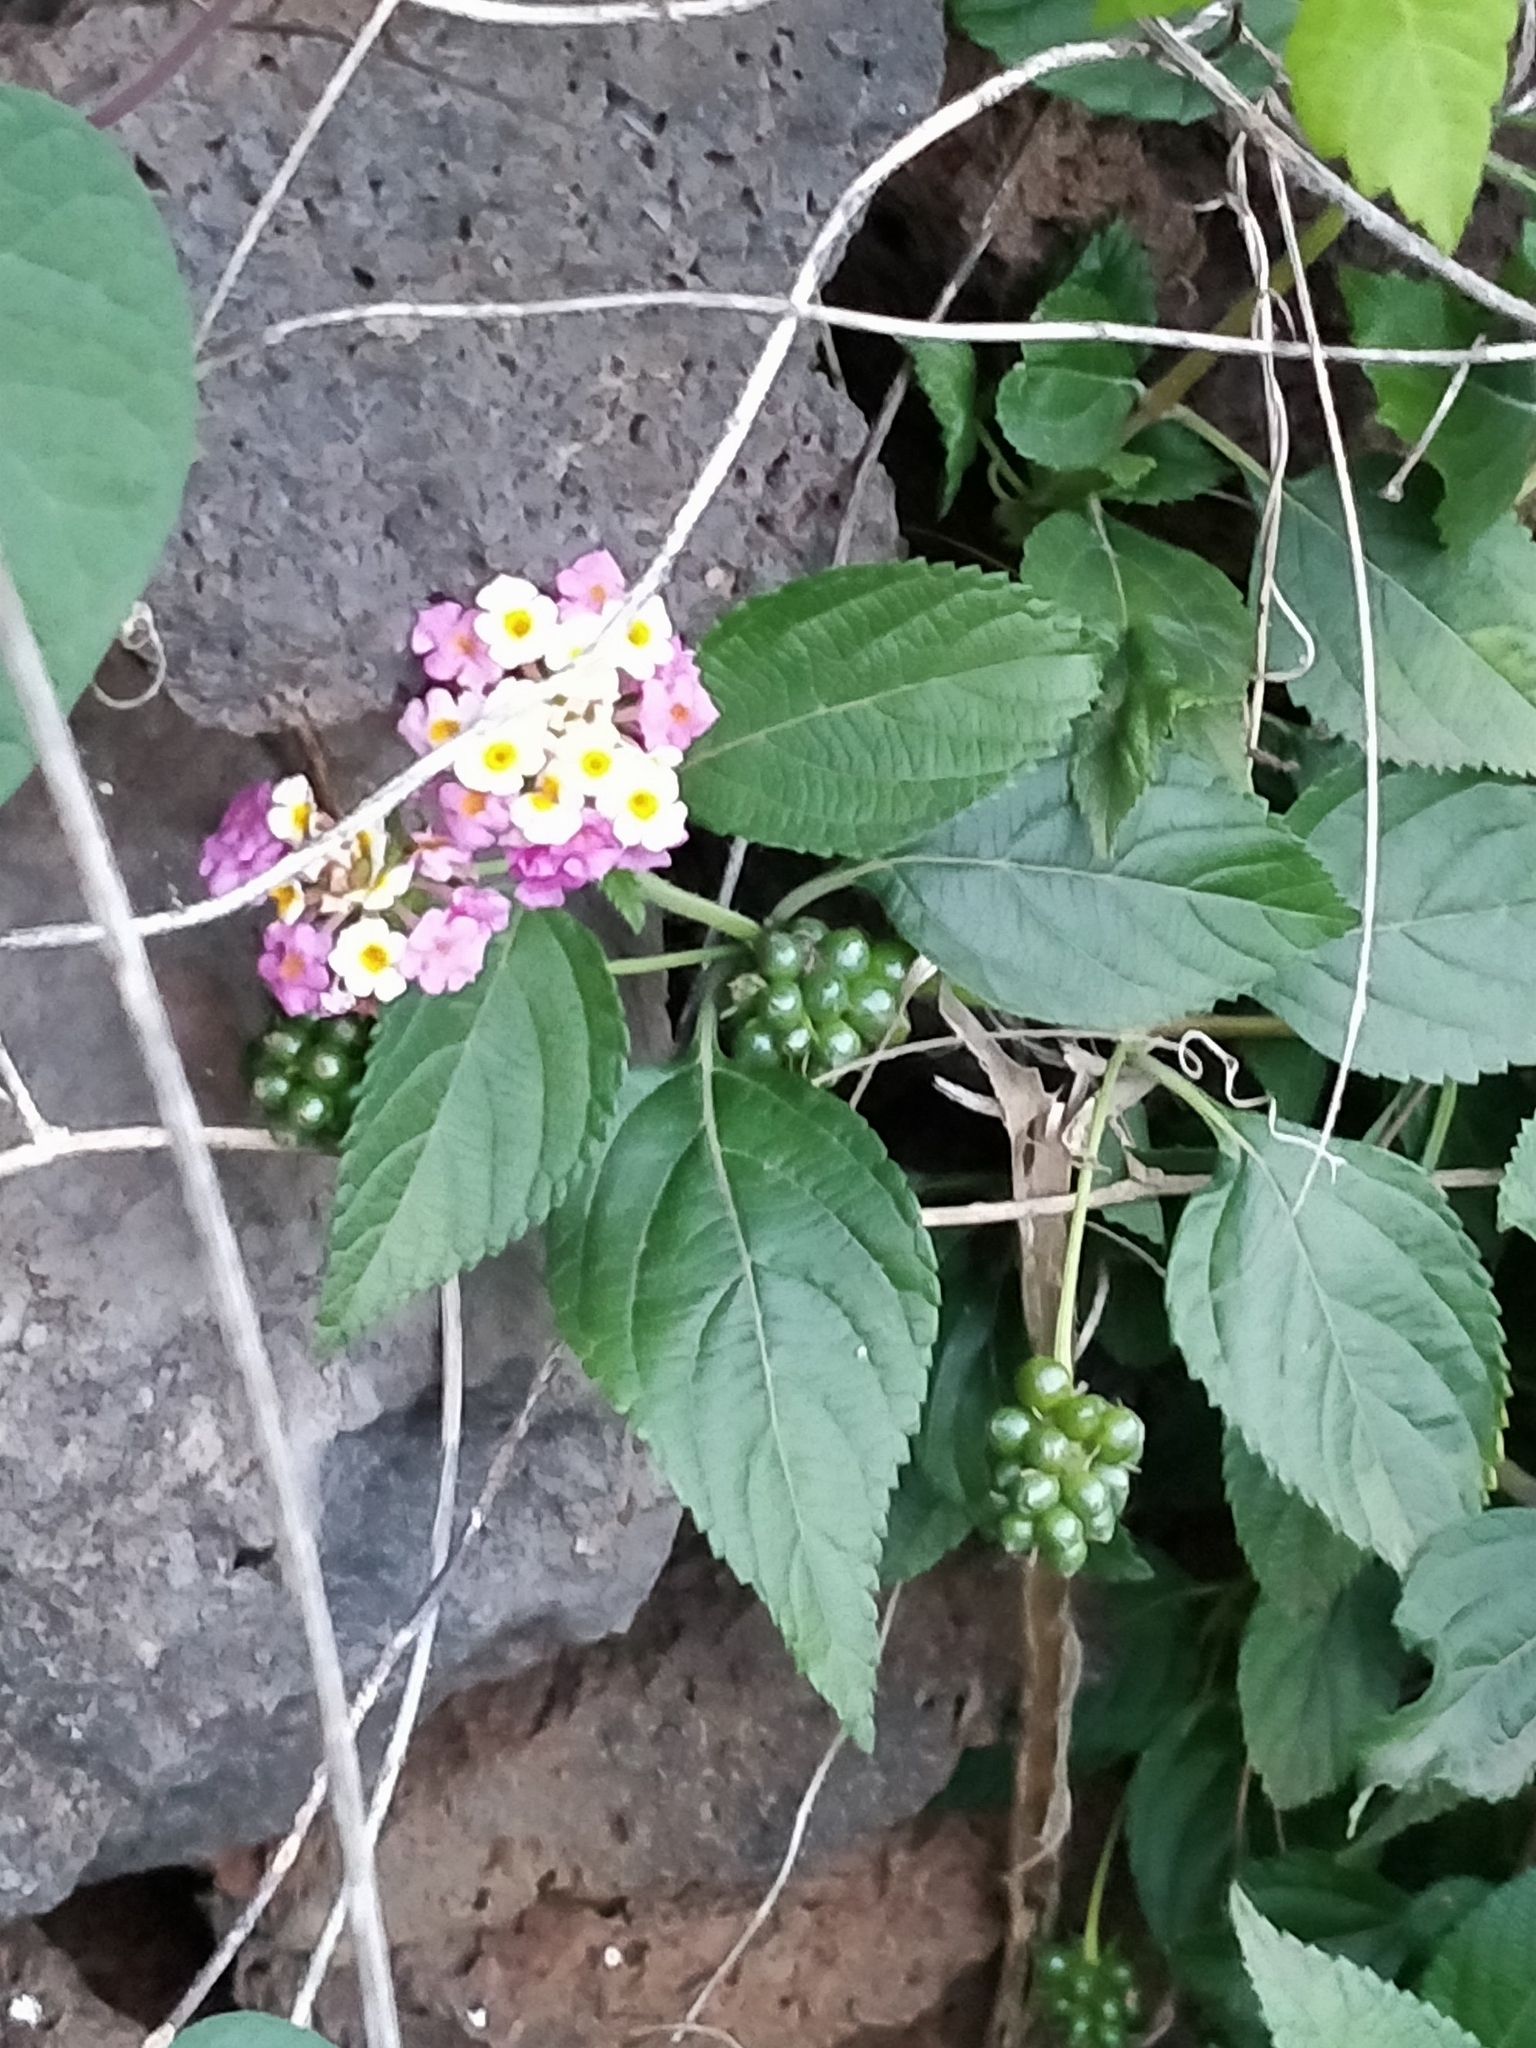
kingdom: Plantae
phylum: Tracheophyta
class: Magnoliopsida
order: Lamiales
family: Verbenaceae
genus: Lantana
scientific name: Lantana camara
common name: Lantana
